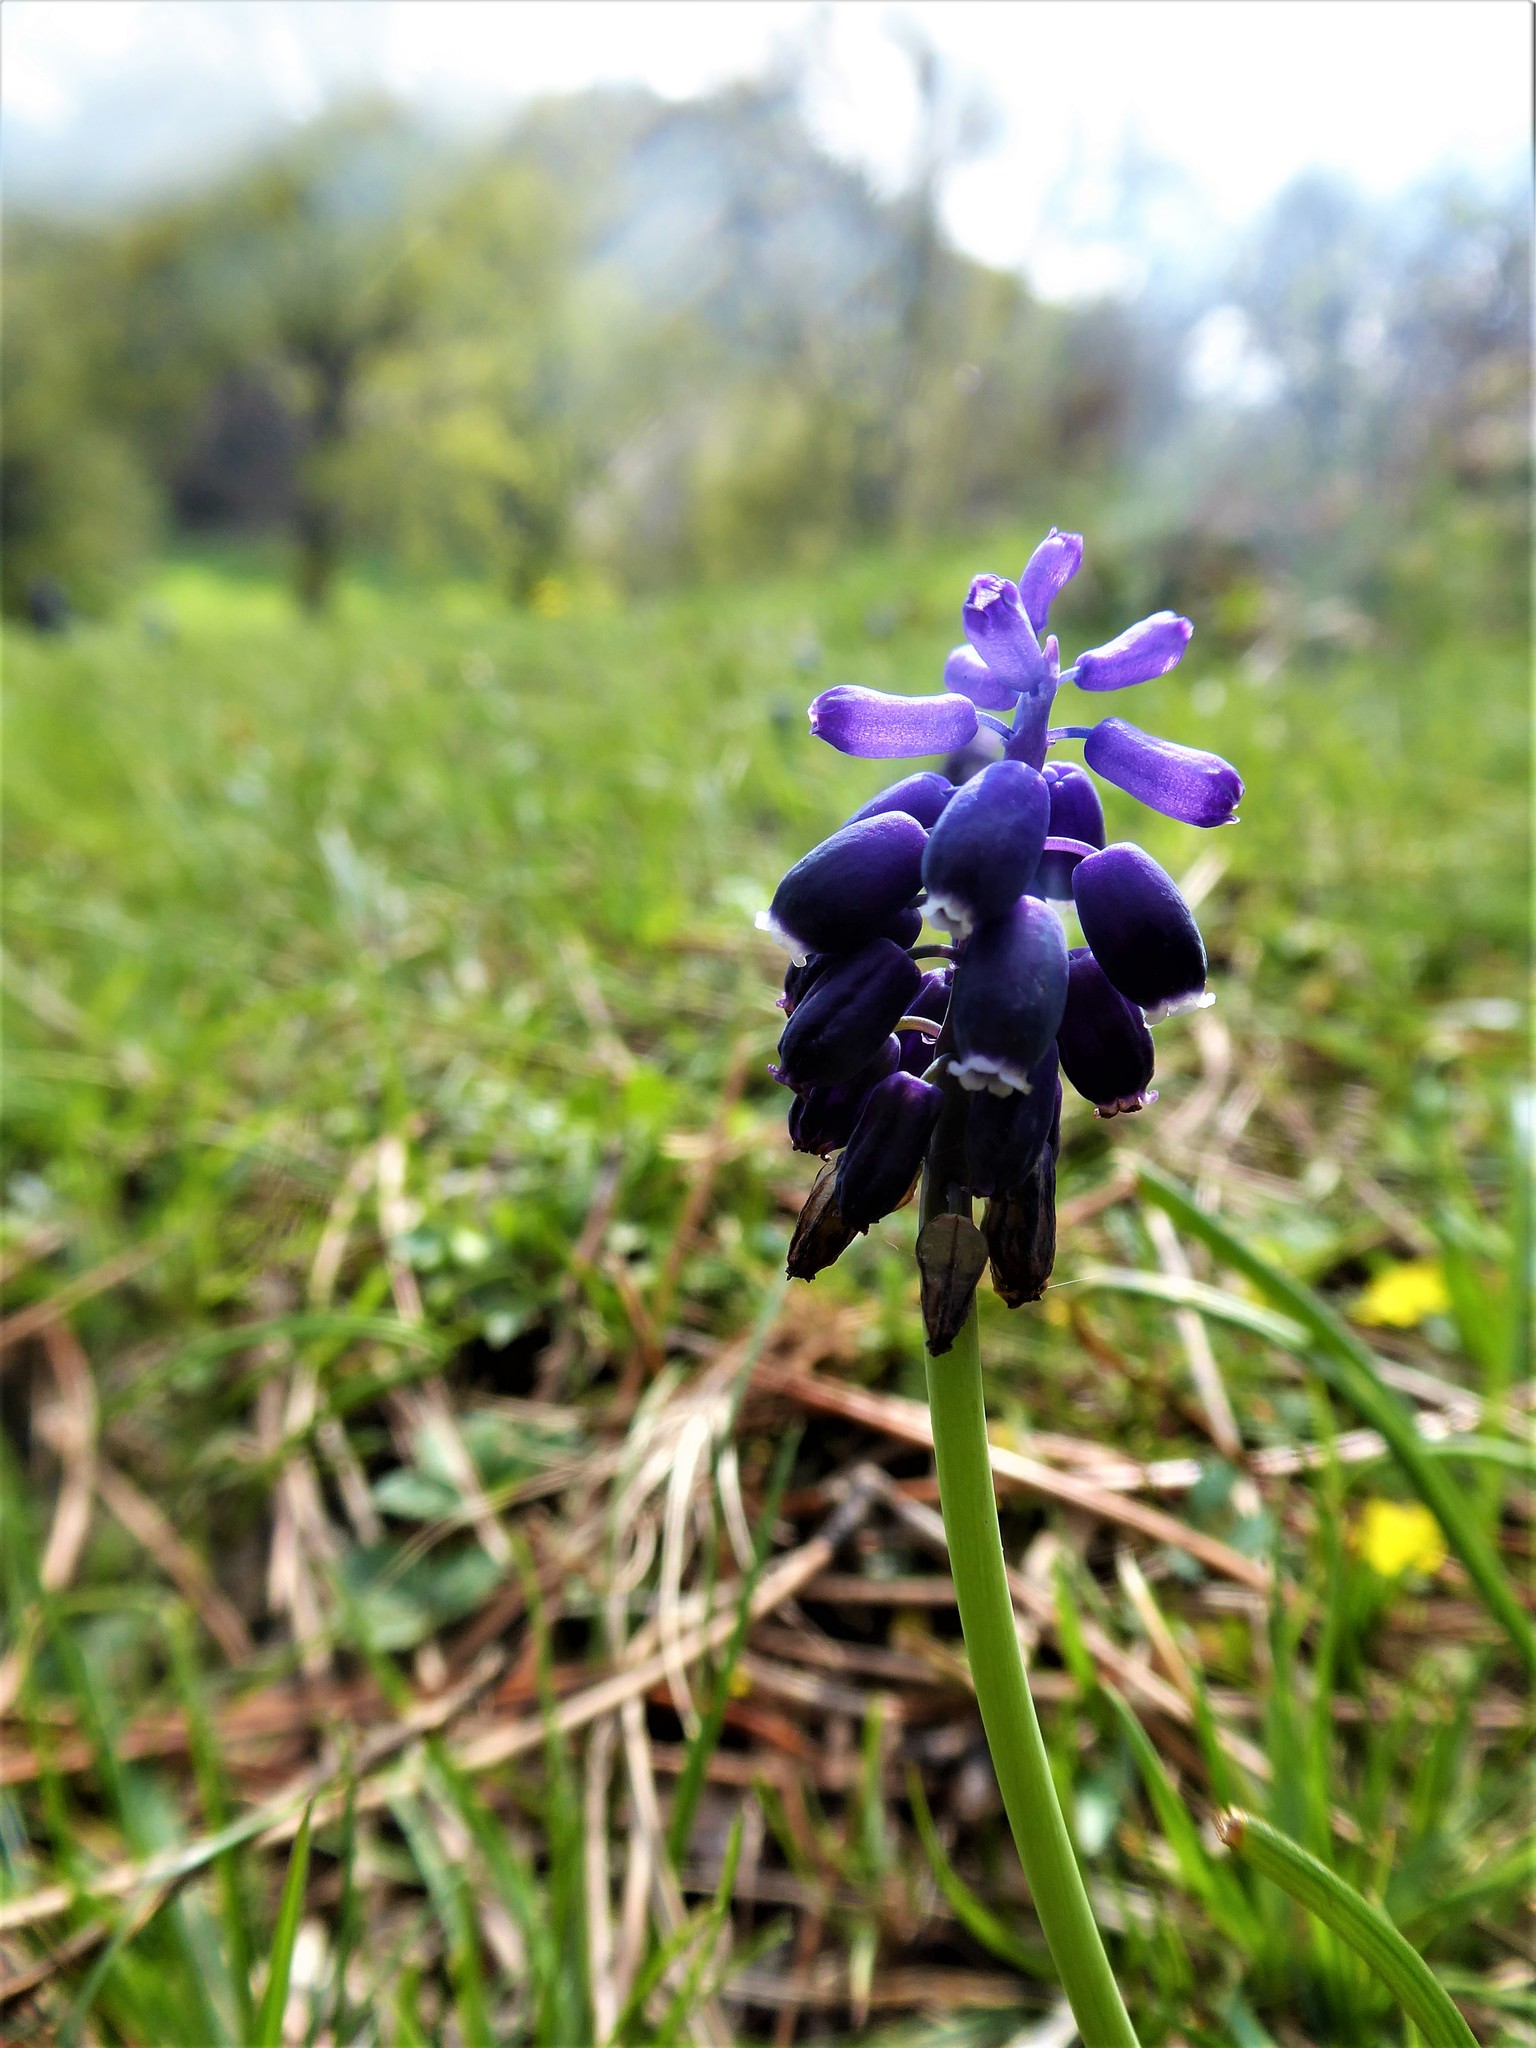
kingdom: Plantae
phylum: Tracheophyta
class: Liliopsida
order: Asparagales
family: Asparagaceae
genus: Muscari
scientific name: Muscari neglectum
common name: Grape-hyacinth
